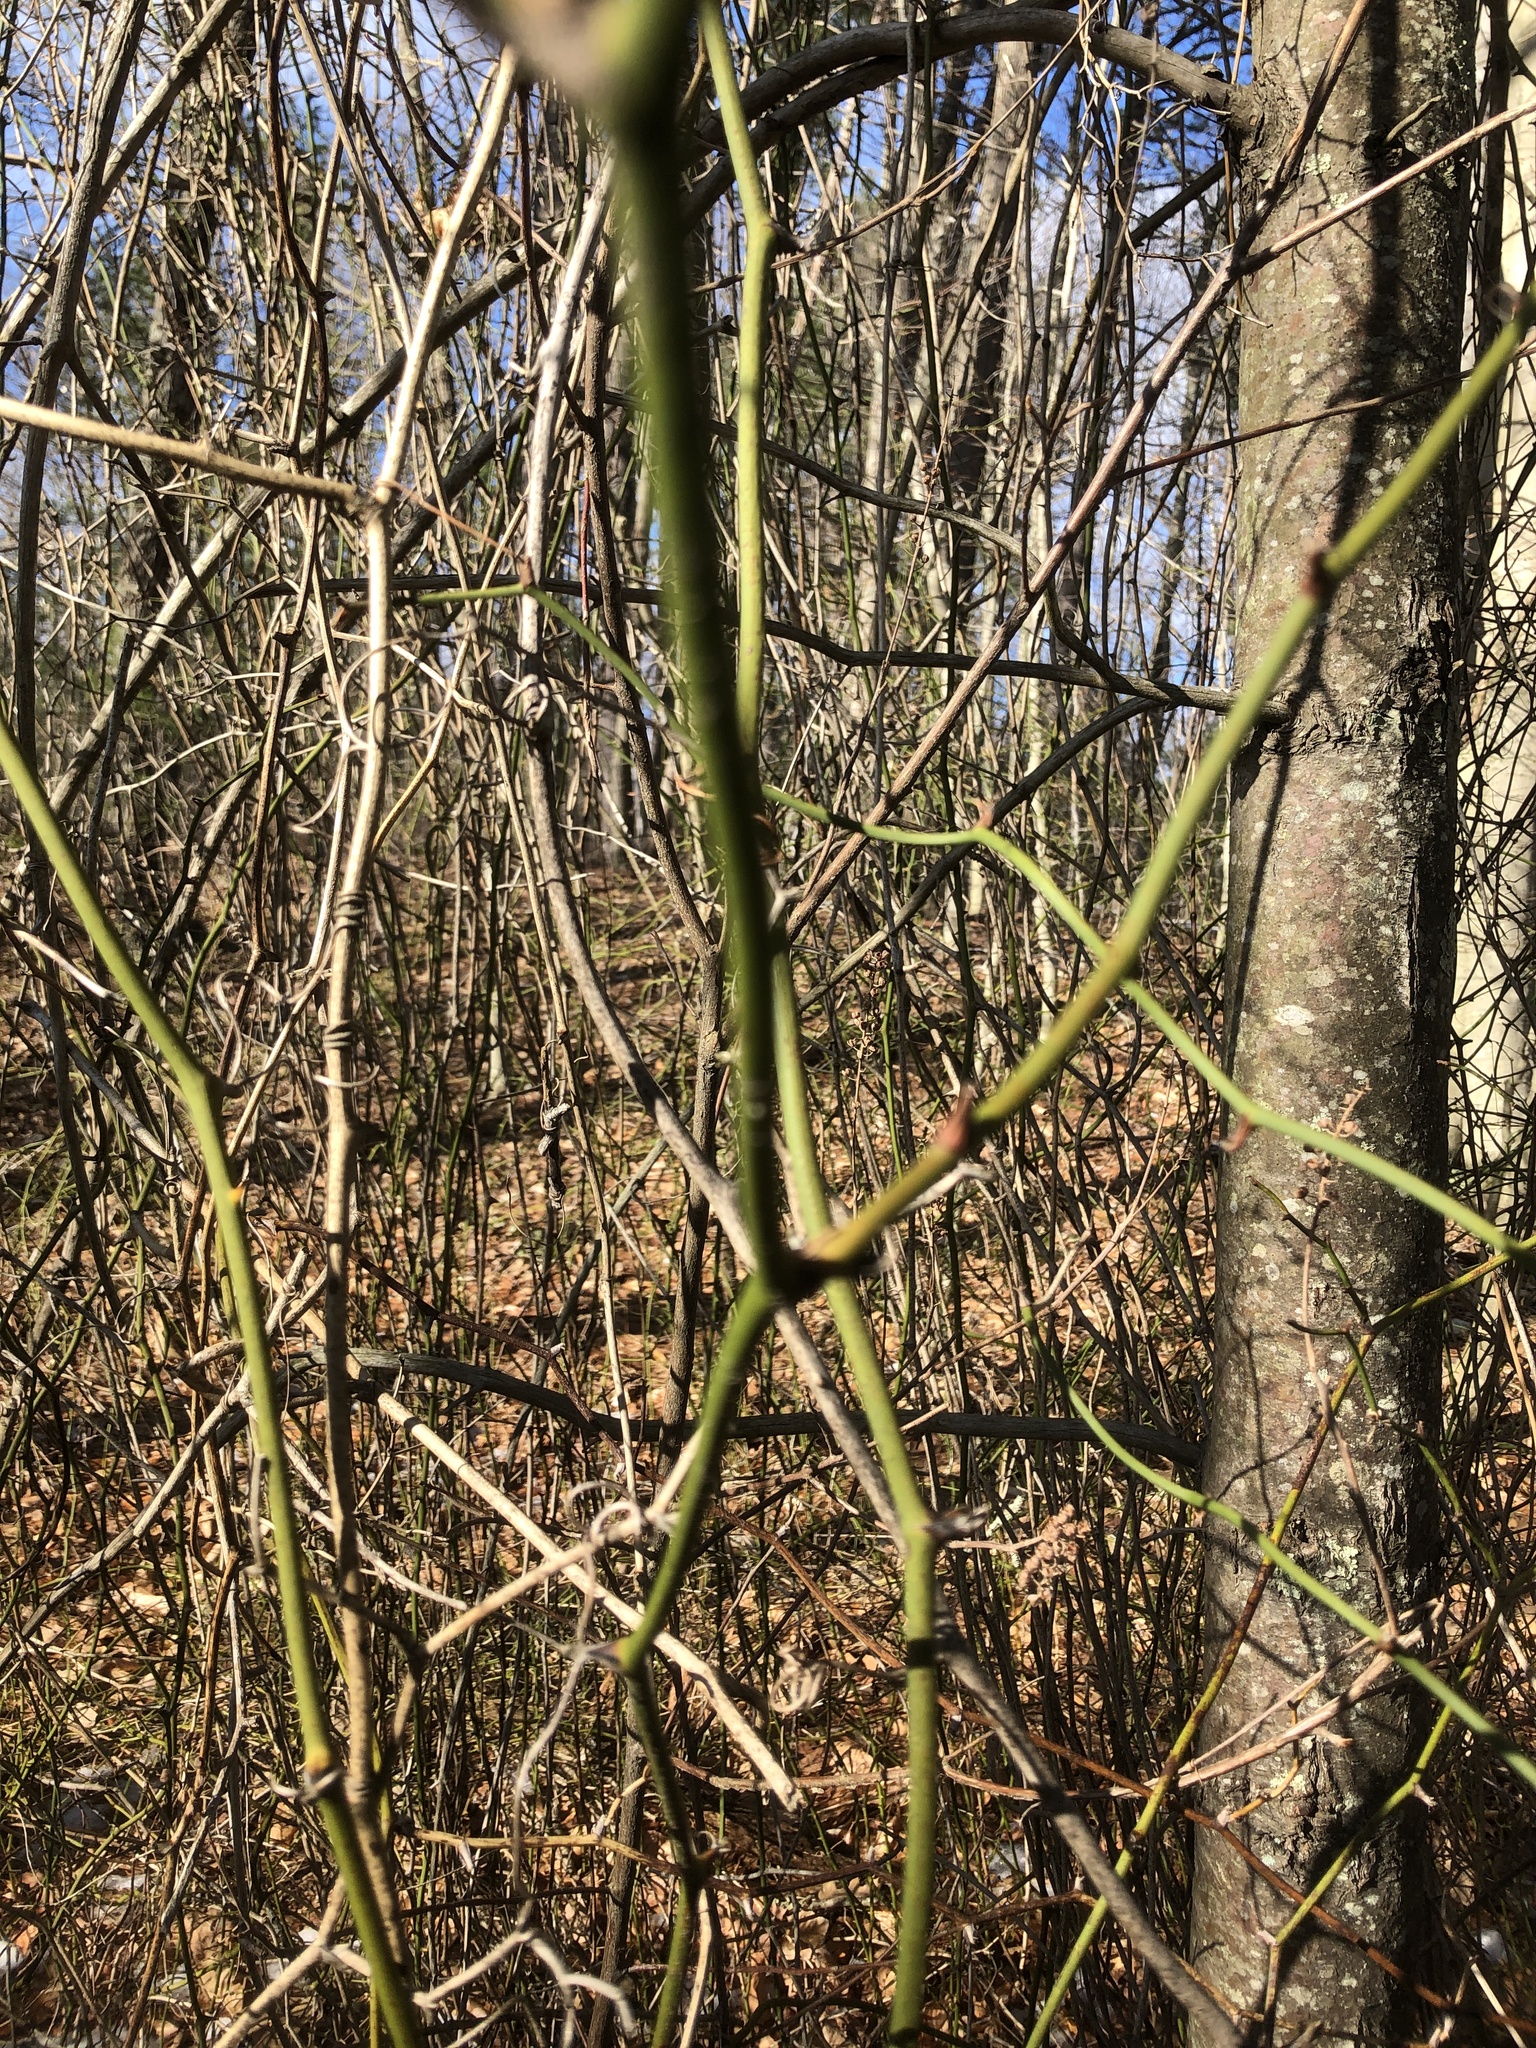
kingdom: Plantae
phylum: Tracheophyta
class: Liliopsida
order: Liliales
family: Smilacaceae
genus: Smilax
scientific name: Smilax rotundifolia
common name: Bullbriar
